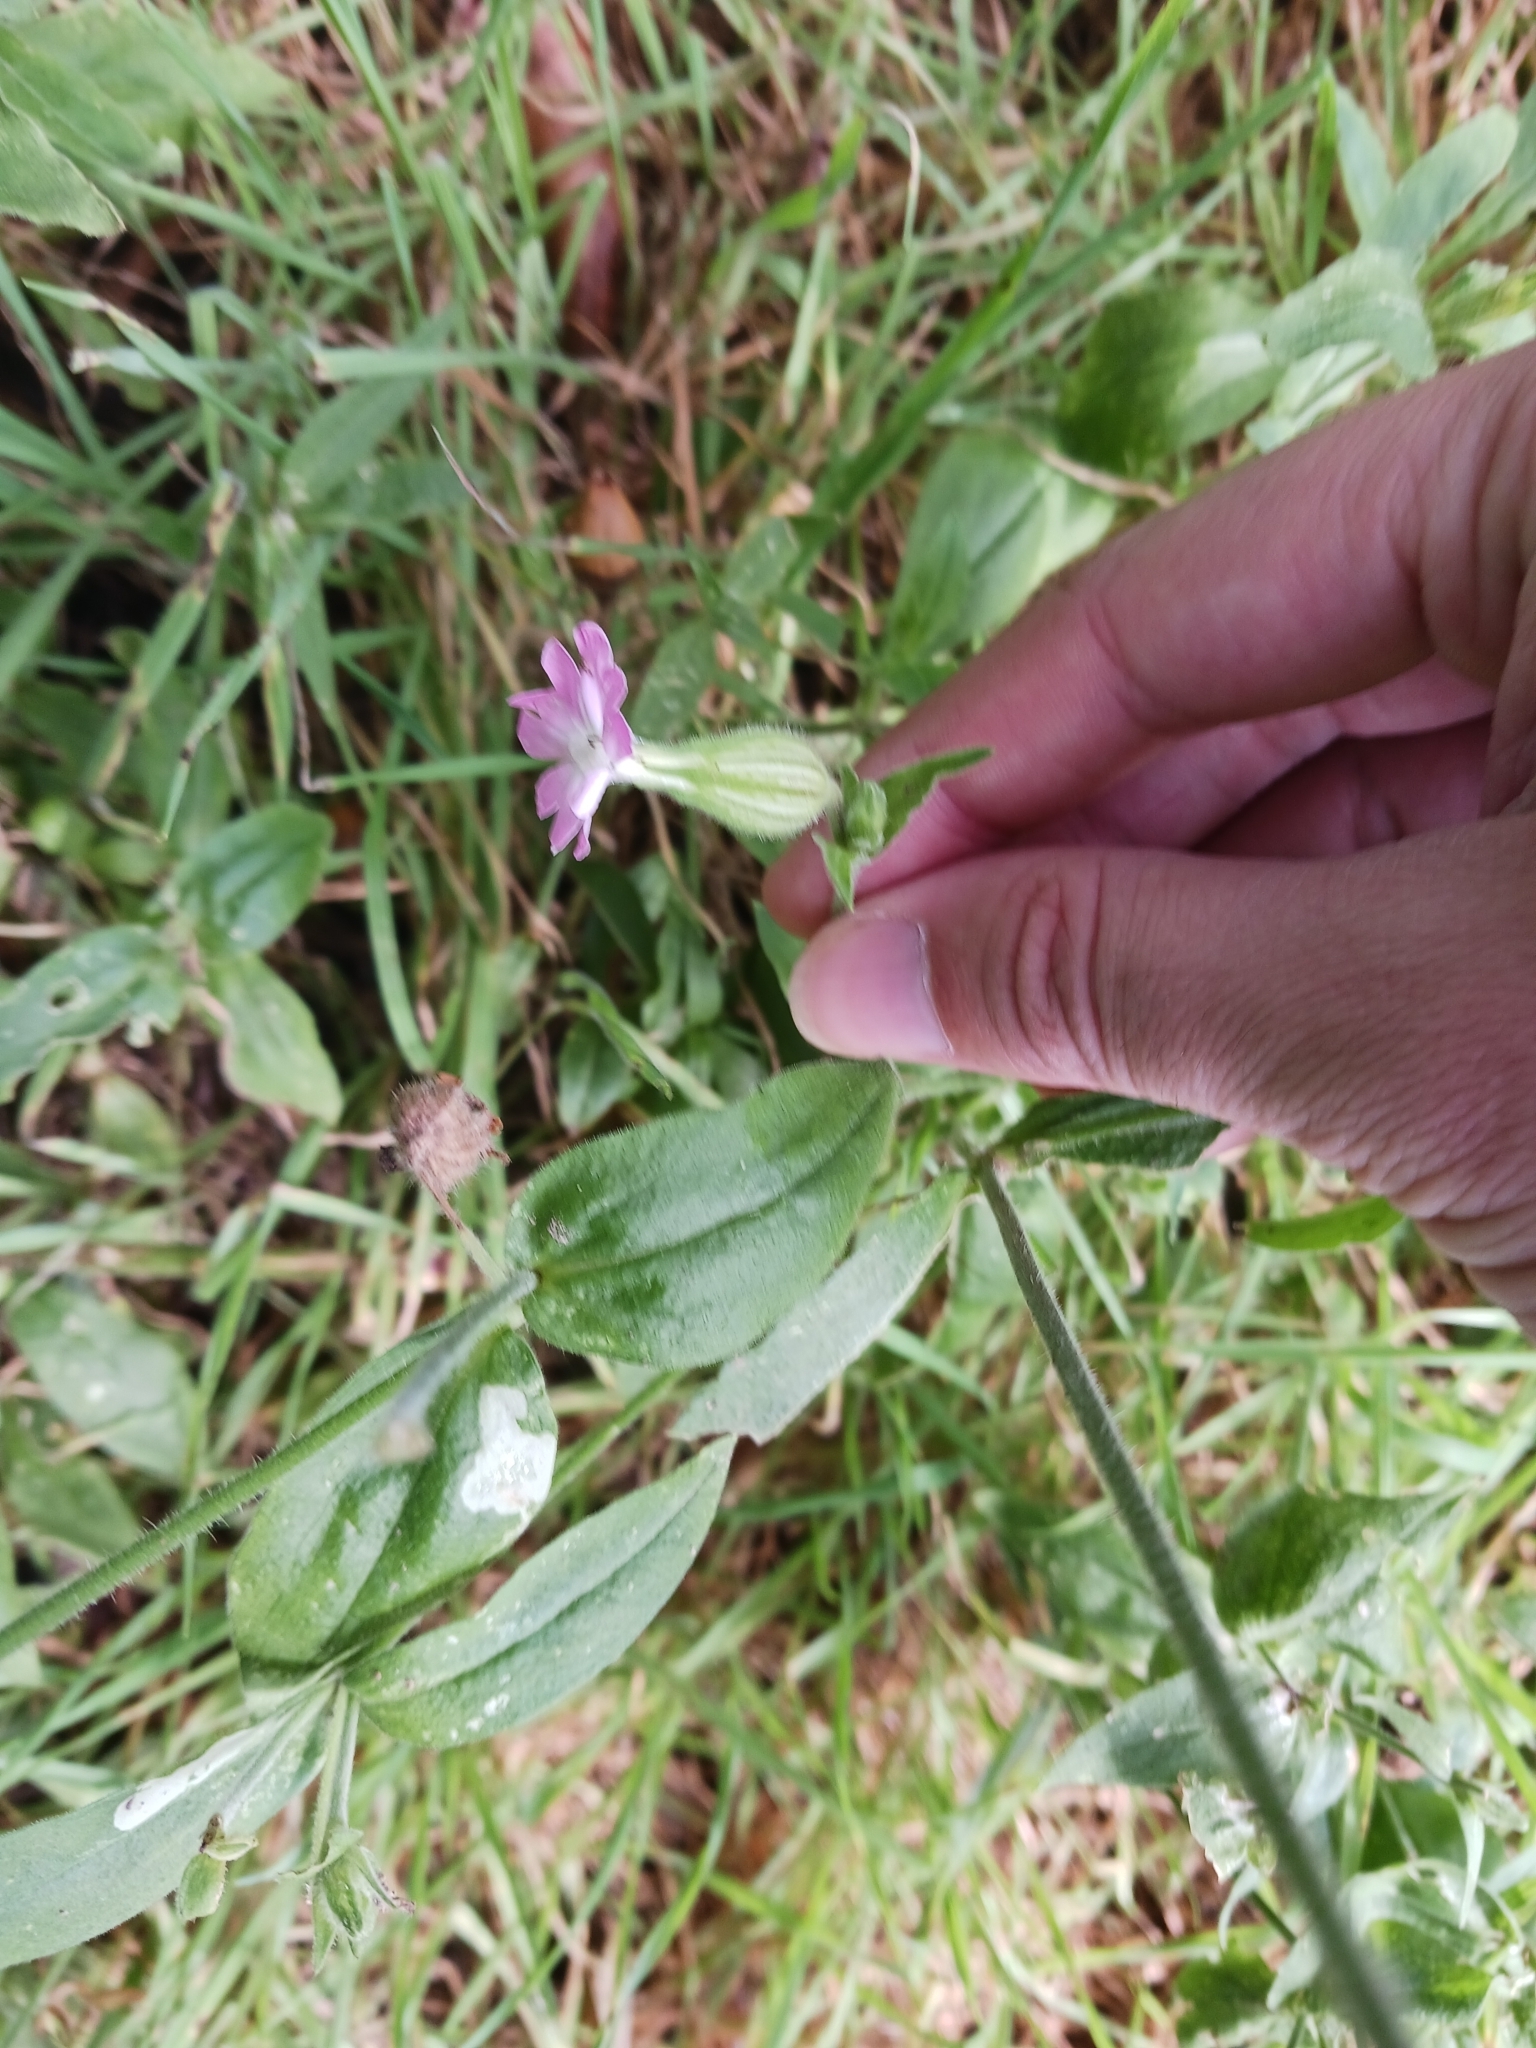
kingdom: Plantae
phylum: Tracheophyta
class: Magnoliopsida
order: Caryophyllales
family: Caryophyllaceae
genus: Silene
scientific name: Silene dioica
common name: Red campion
